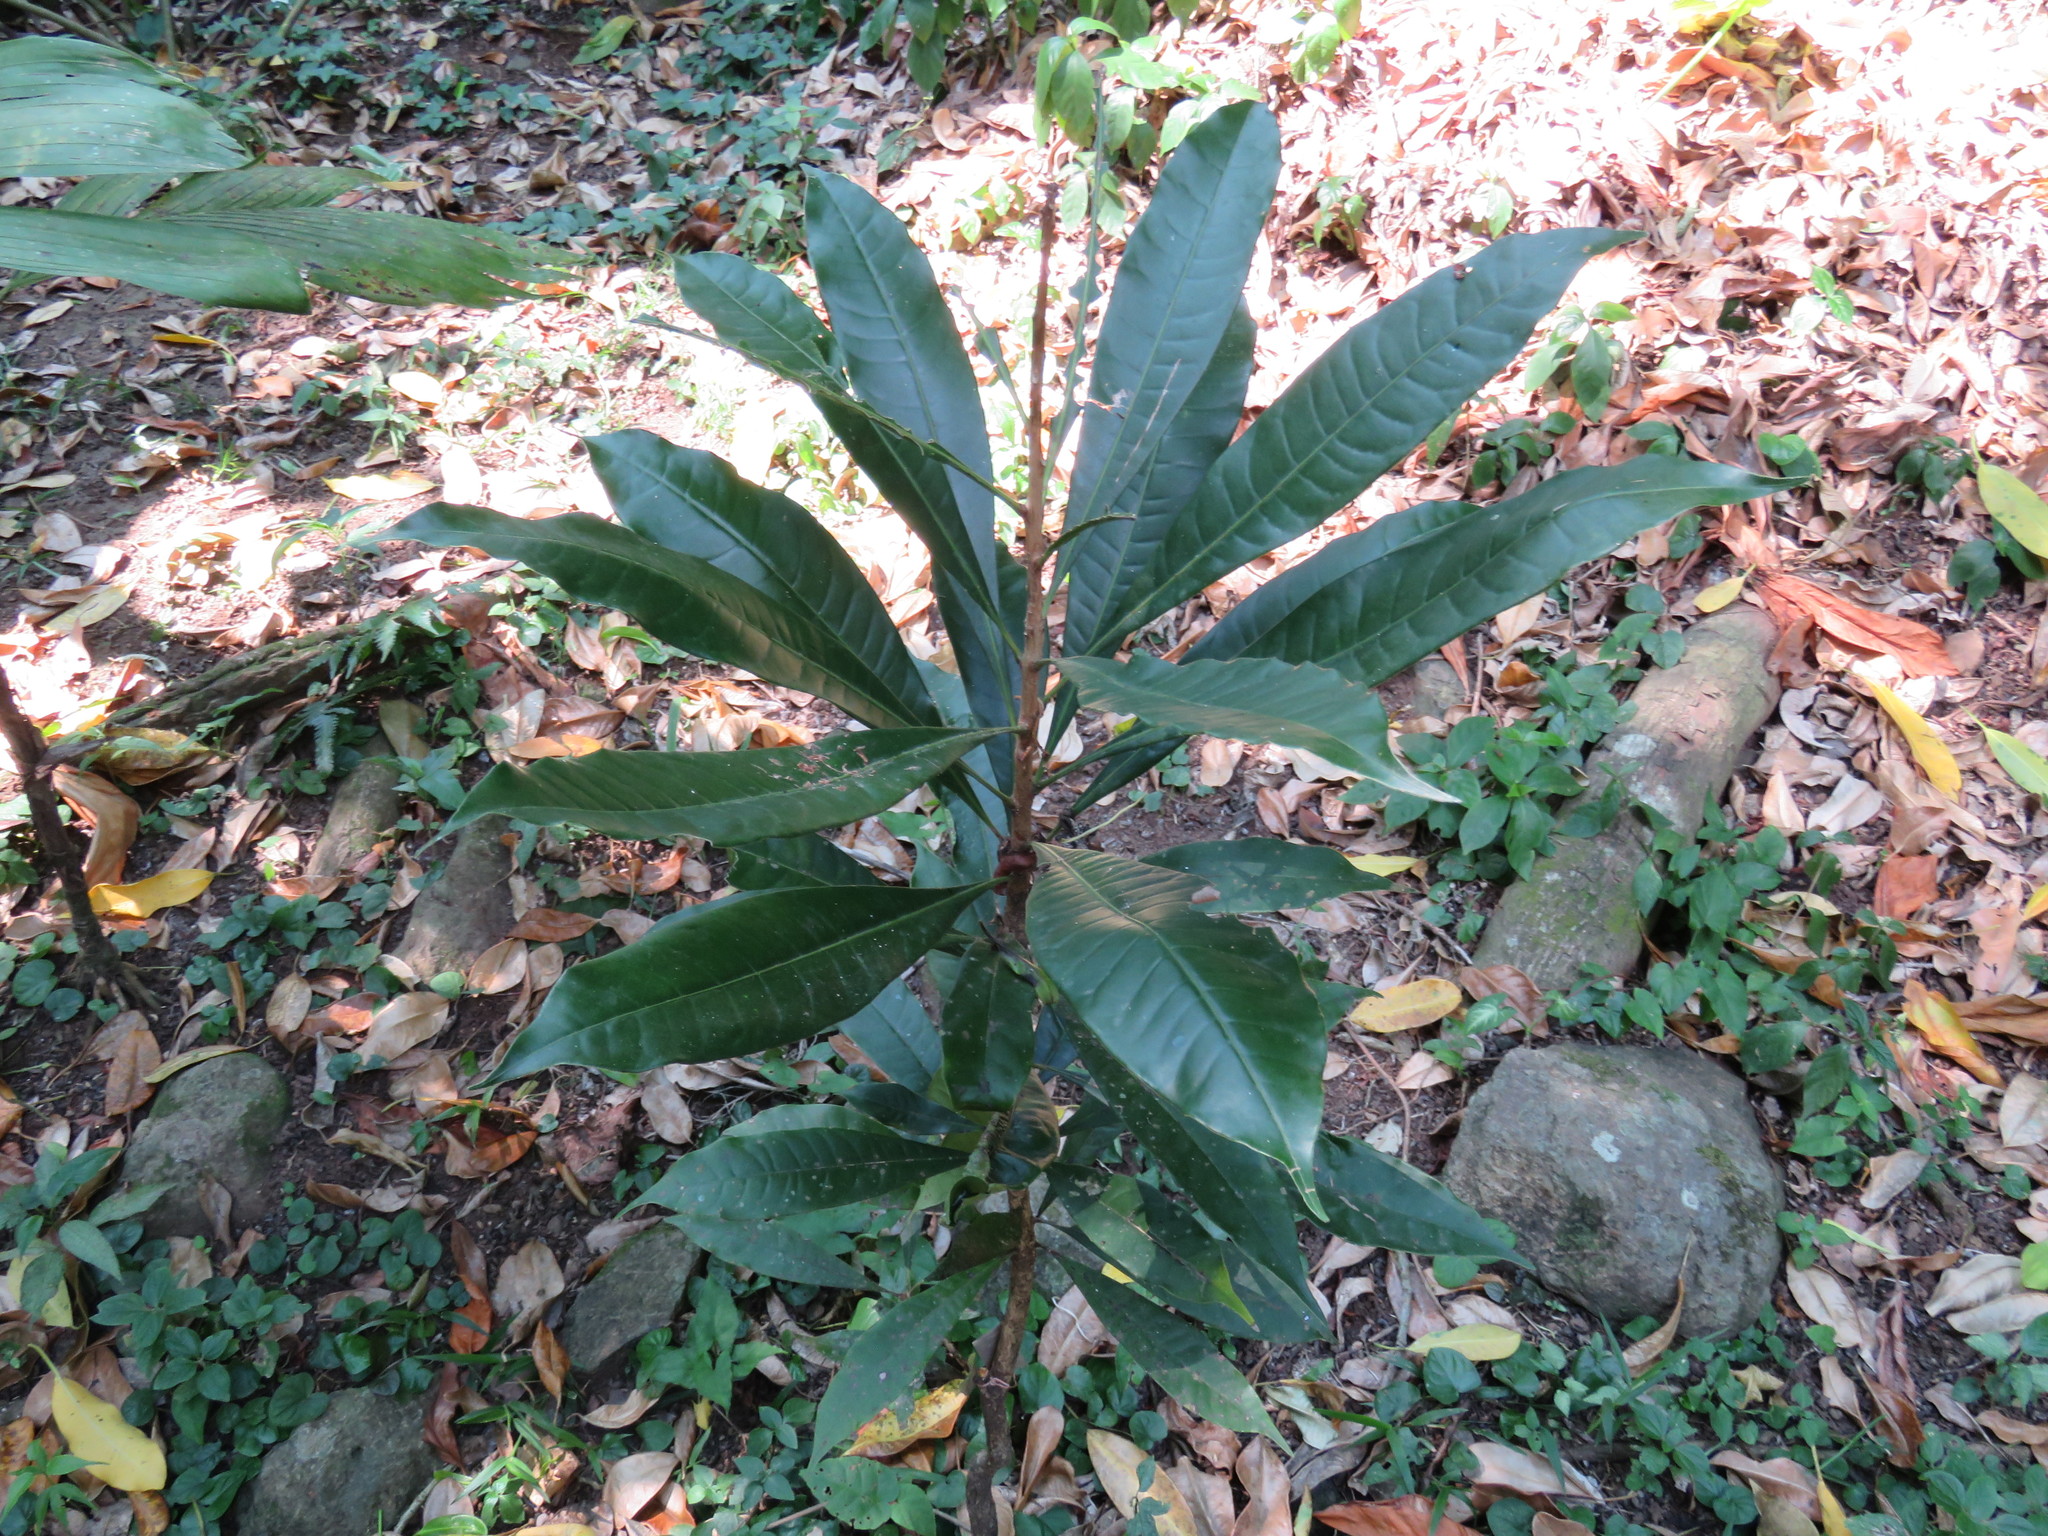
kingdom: Plantae
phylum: Tracheophyta
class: Magnoliopsida
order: Lamiales
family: Bignoniaceae
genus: Amphitecna
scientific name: Amphitecna tuxtlensis
